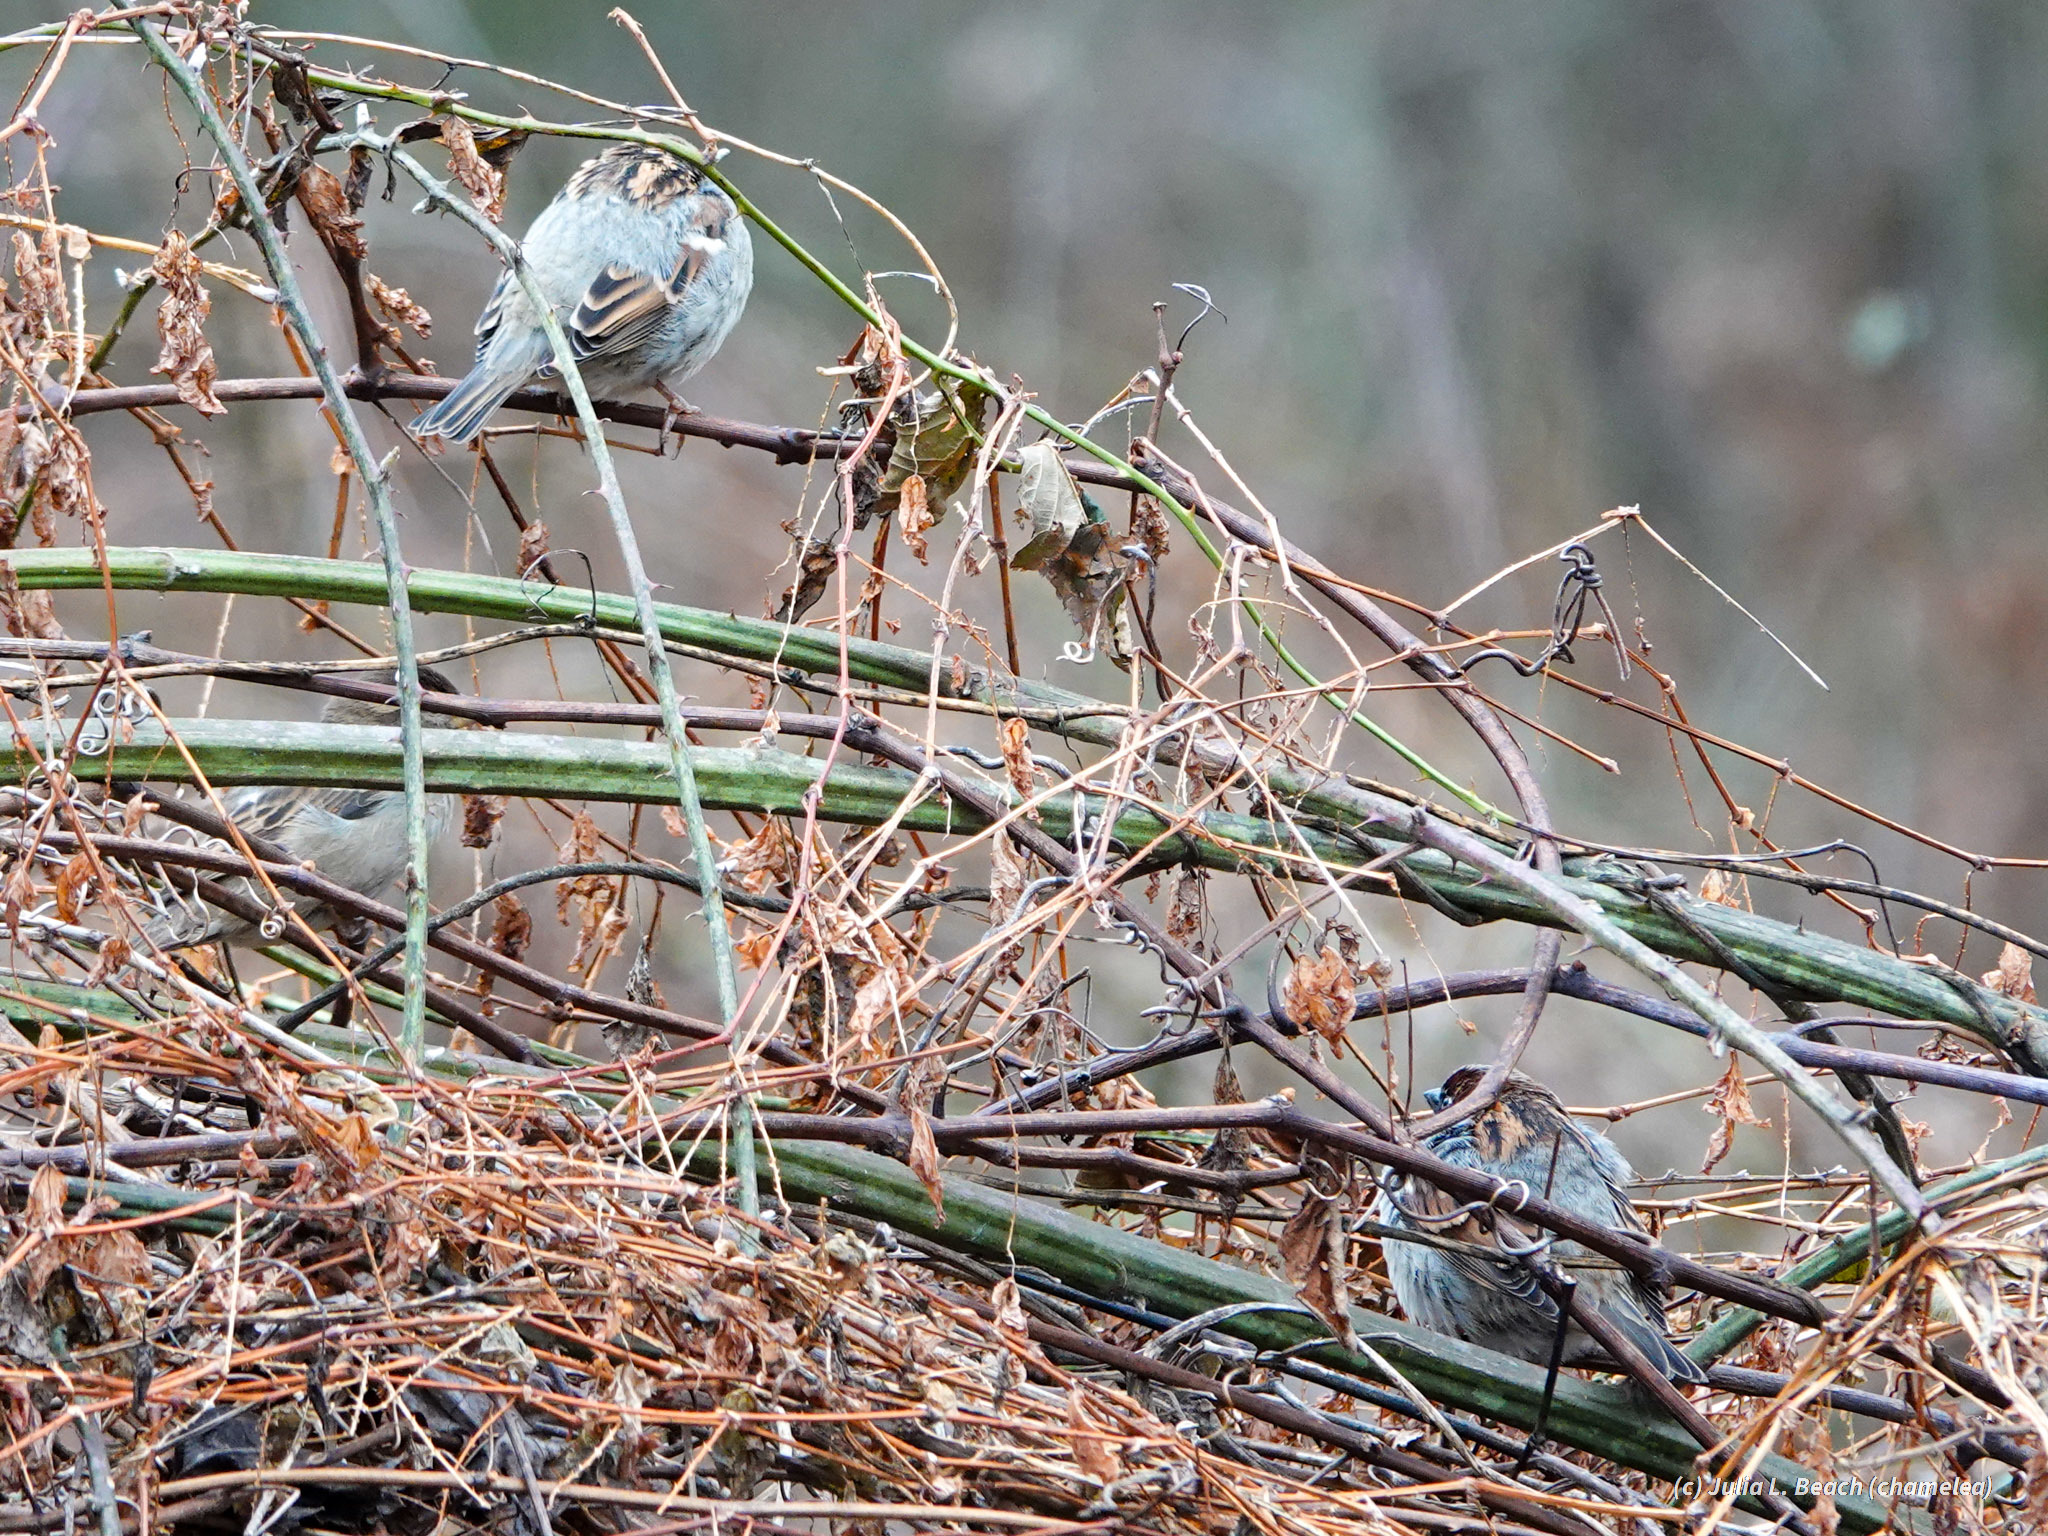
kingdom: Animalia
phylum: Chordata
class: Aves
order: Passeriformes
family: Passeridae
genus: Passer
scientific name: Passer domesticus
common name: House sparrow
